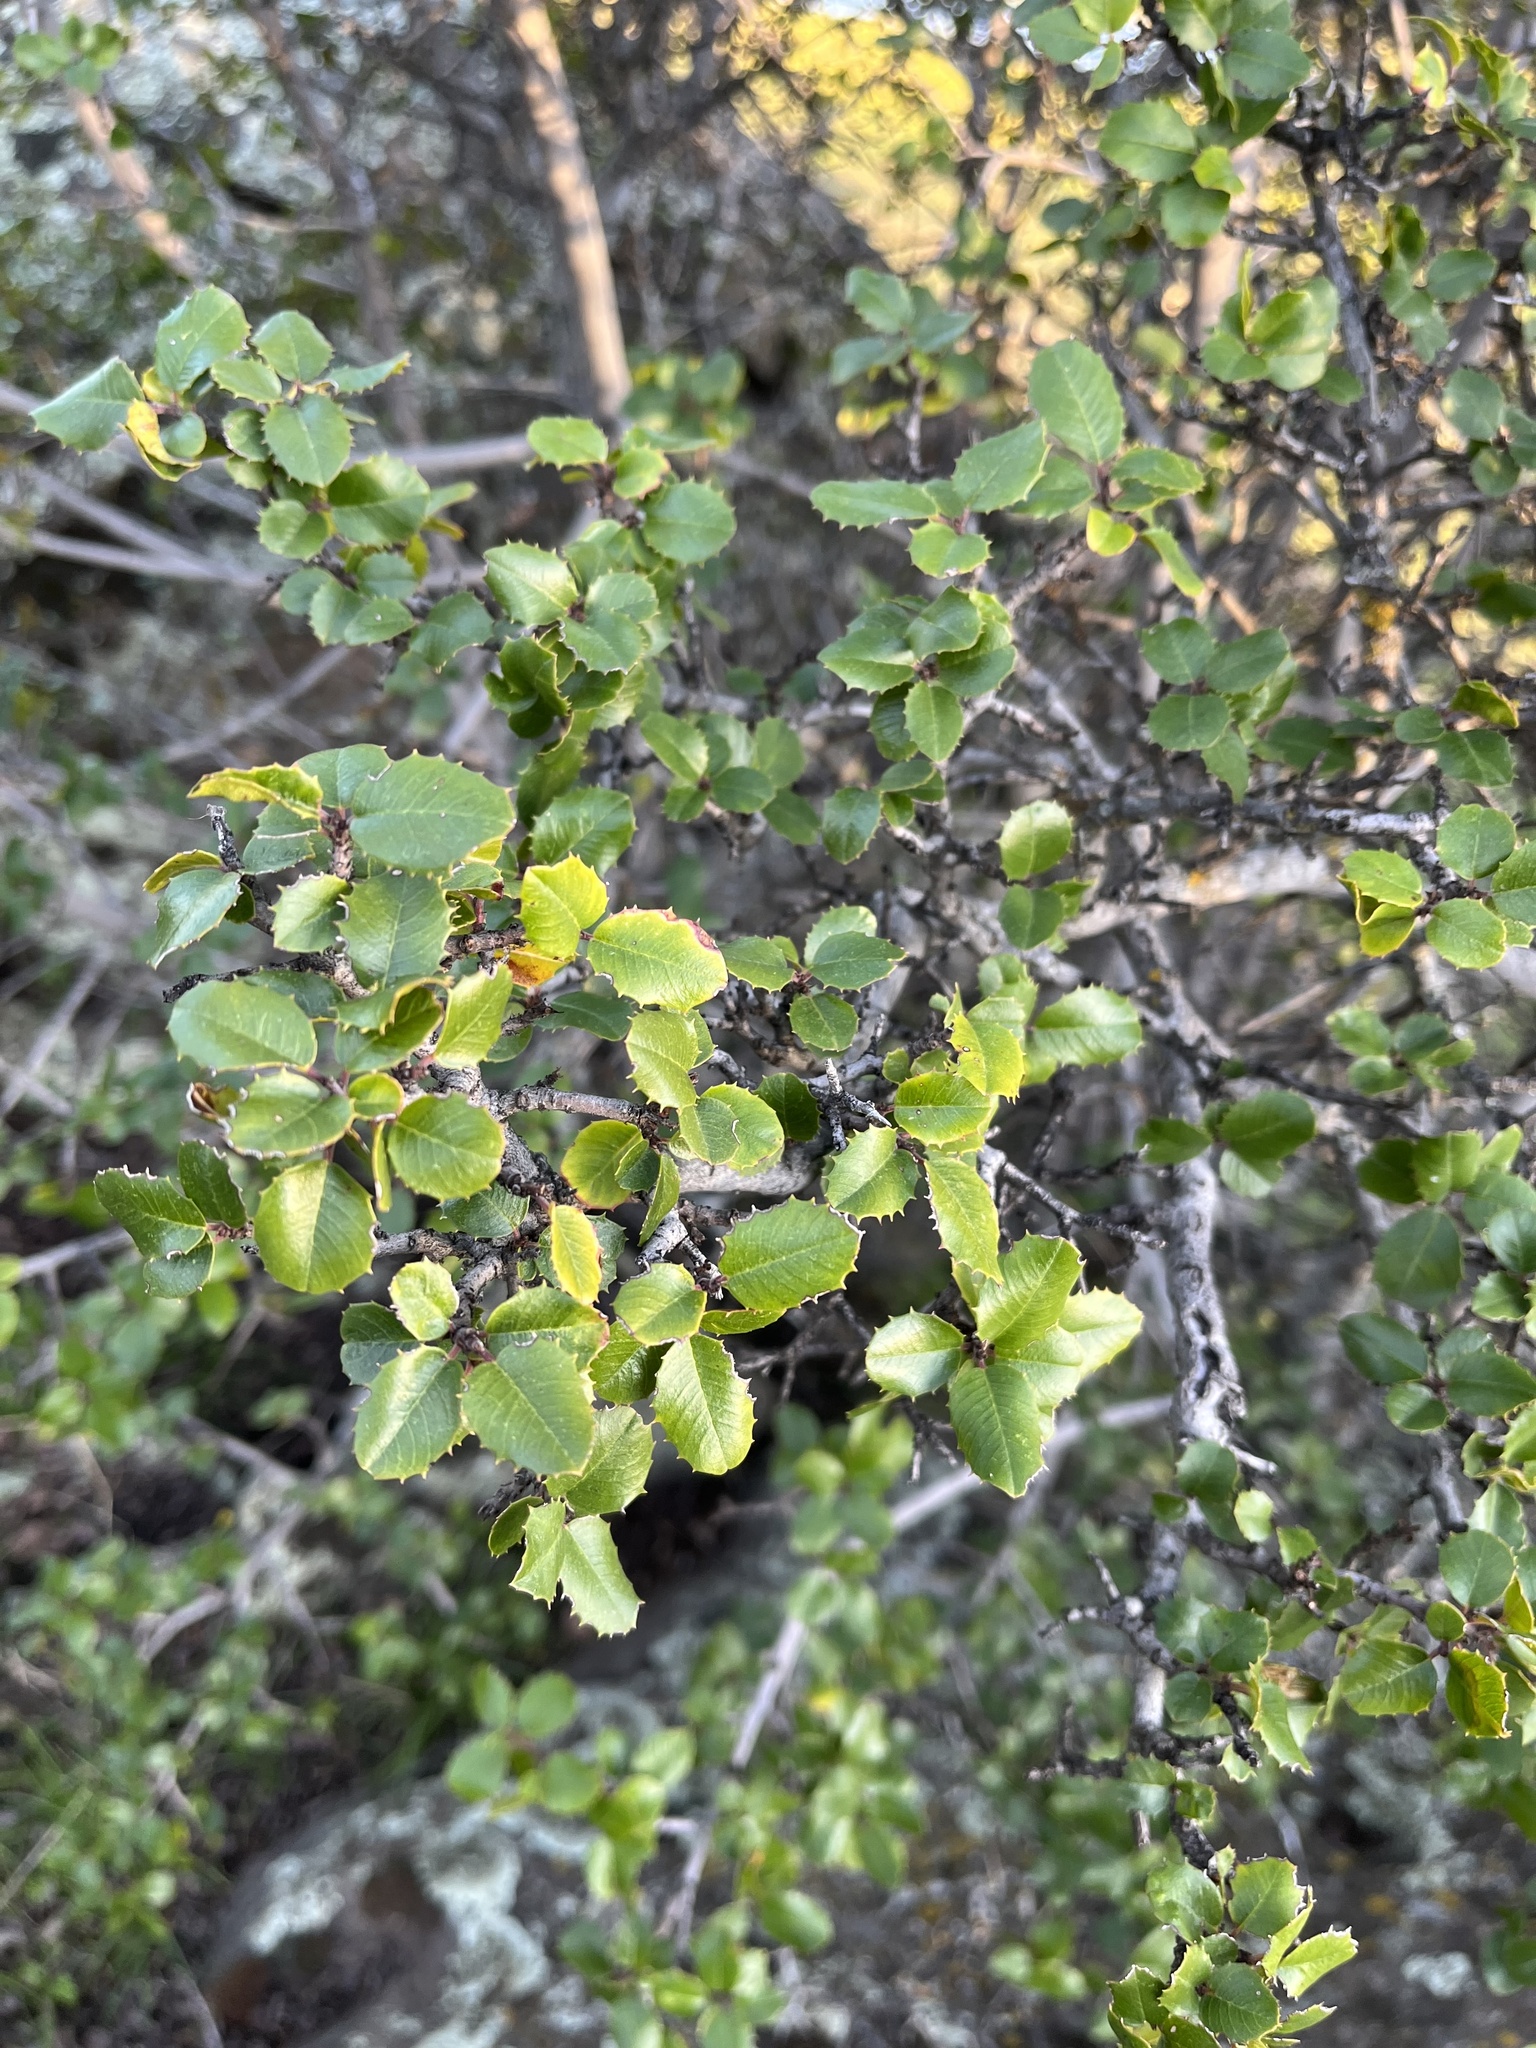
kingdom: Plantae
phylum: Tracheophyta
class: Magnoliopsida
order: Rosales
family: Rhamnaceae
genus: Endotropis
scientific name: Endotropis crocea
